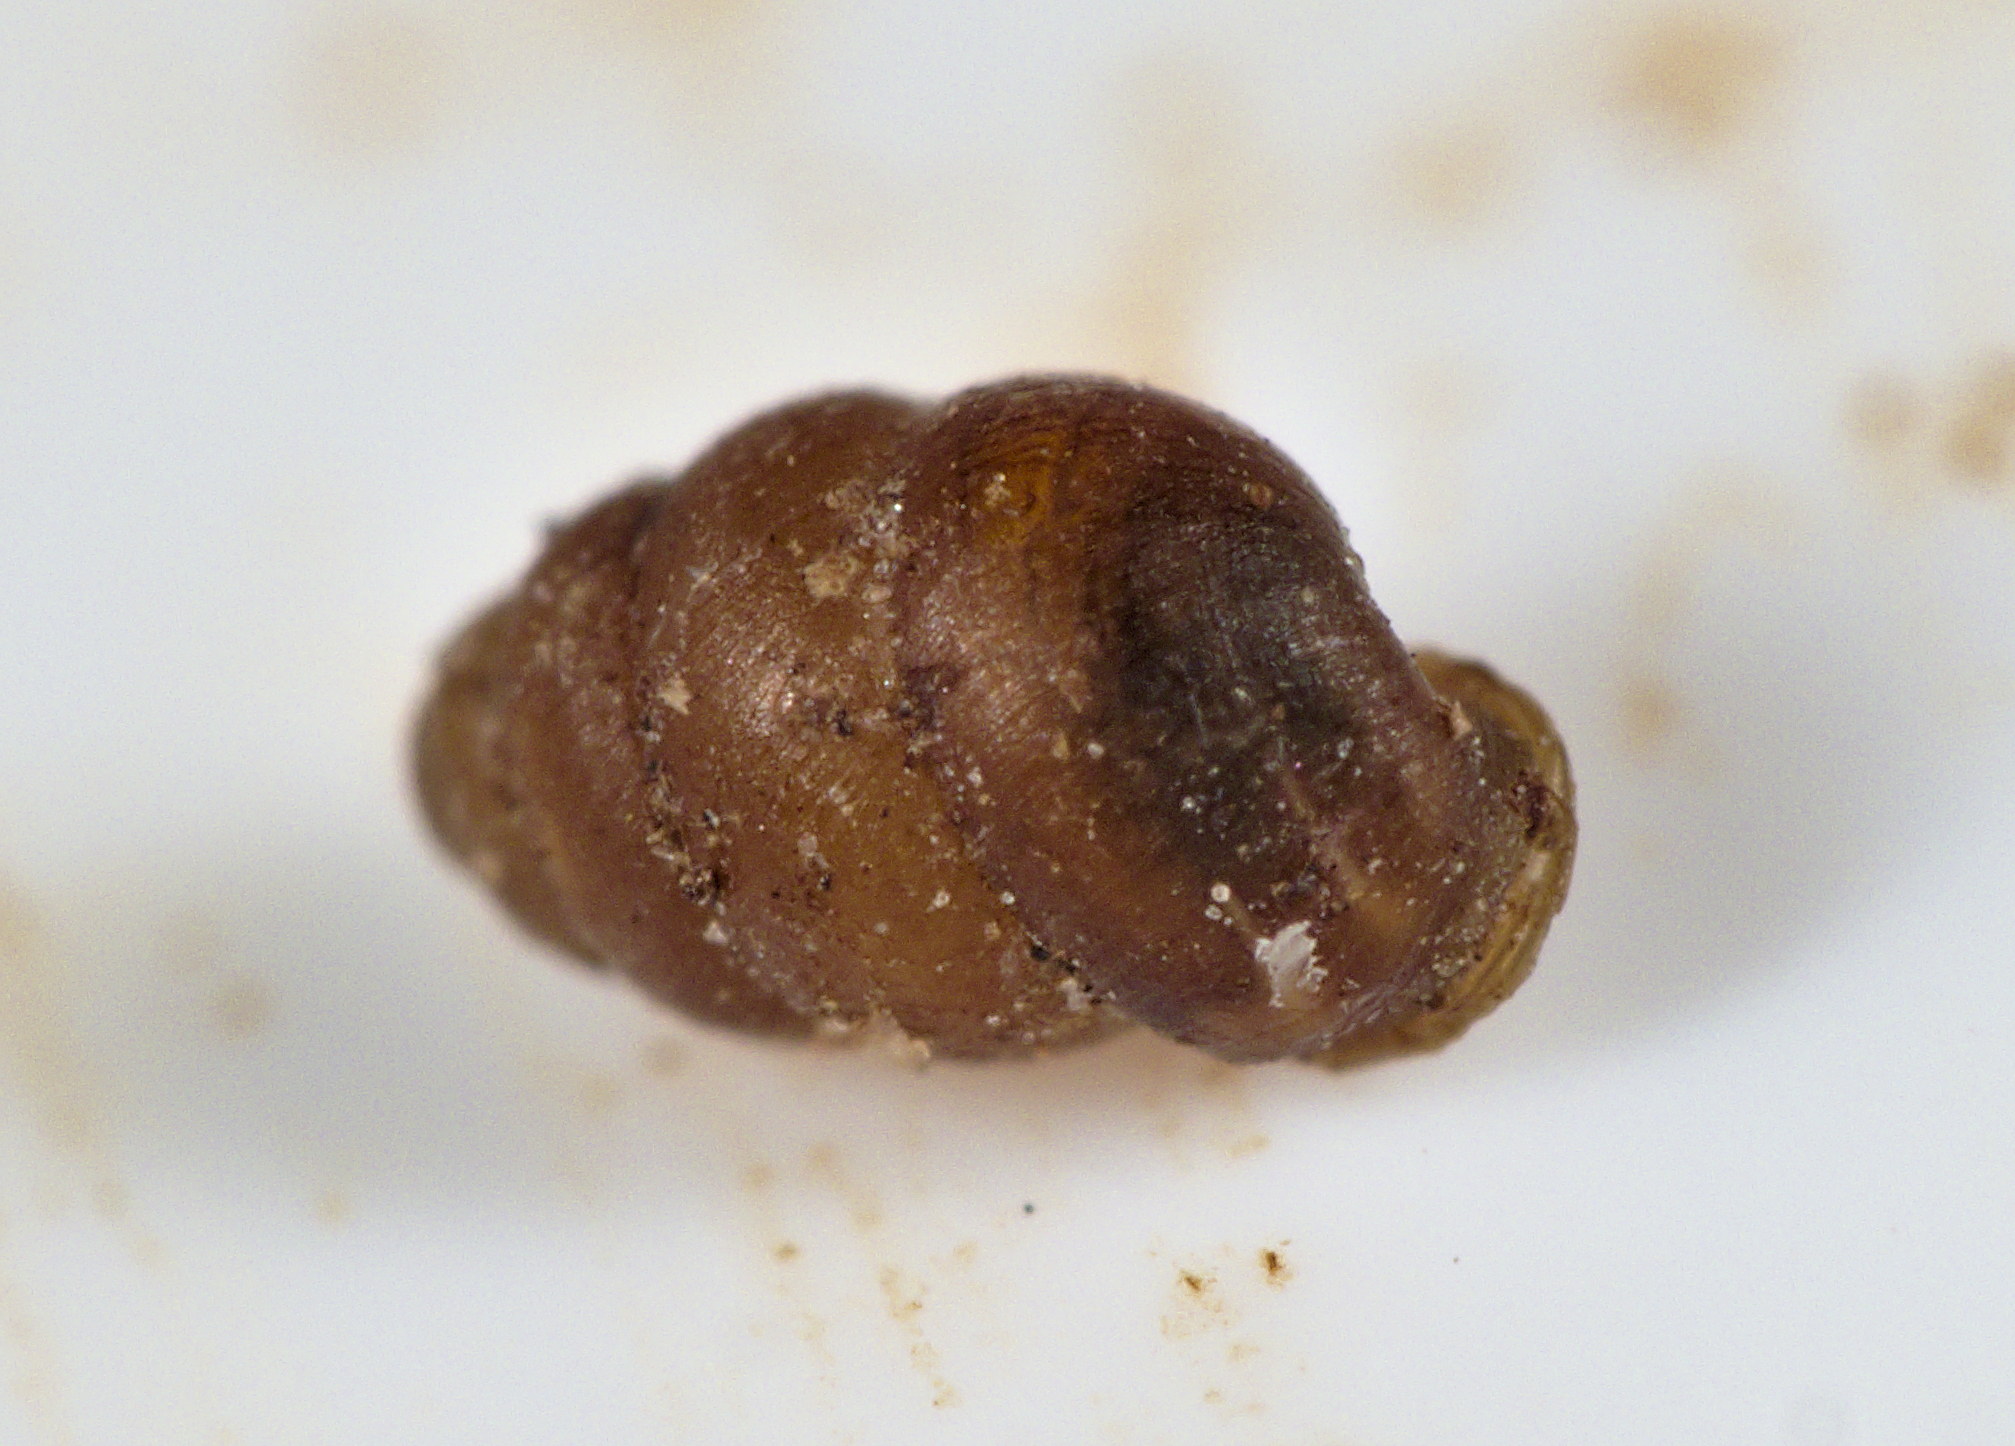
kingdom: Animalia
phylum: Mollusca
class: Gastropoda
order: Stylommatophora
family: Vertiginidae
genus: Vertigo
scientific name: Vertigo pygmaea
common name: Common whorl snail
